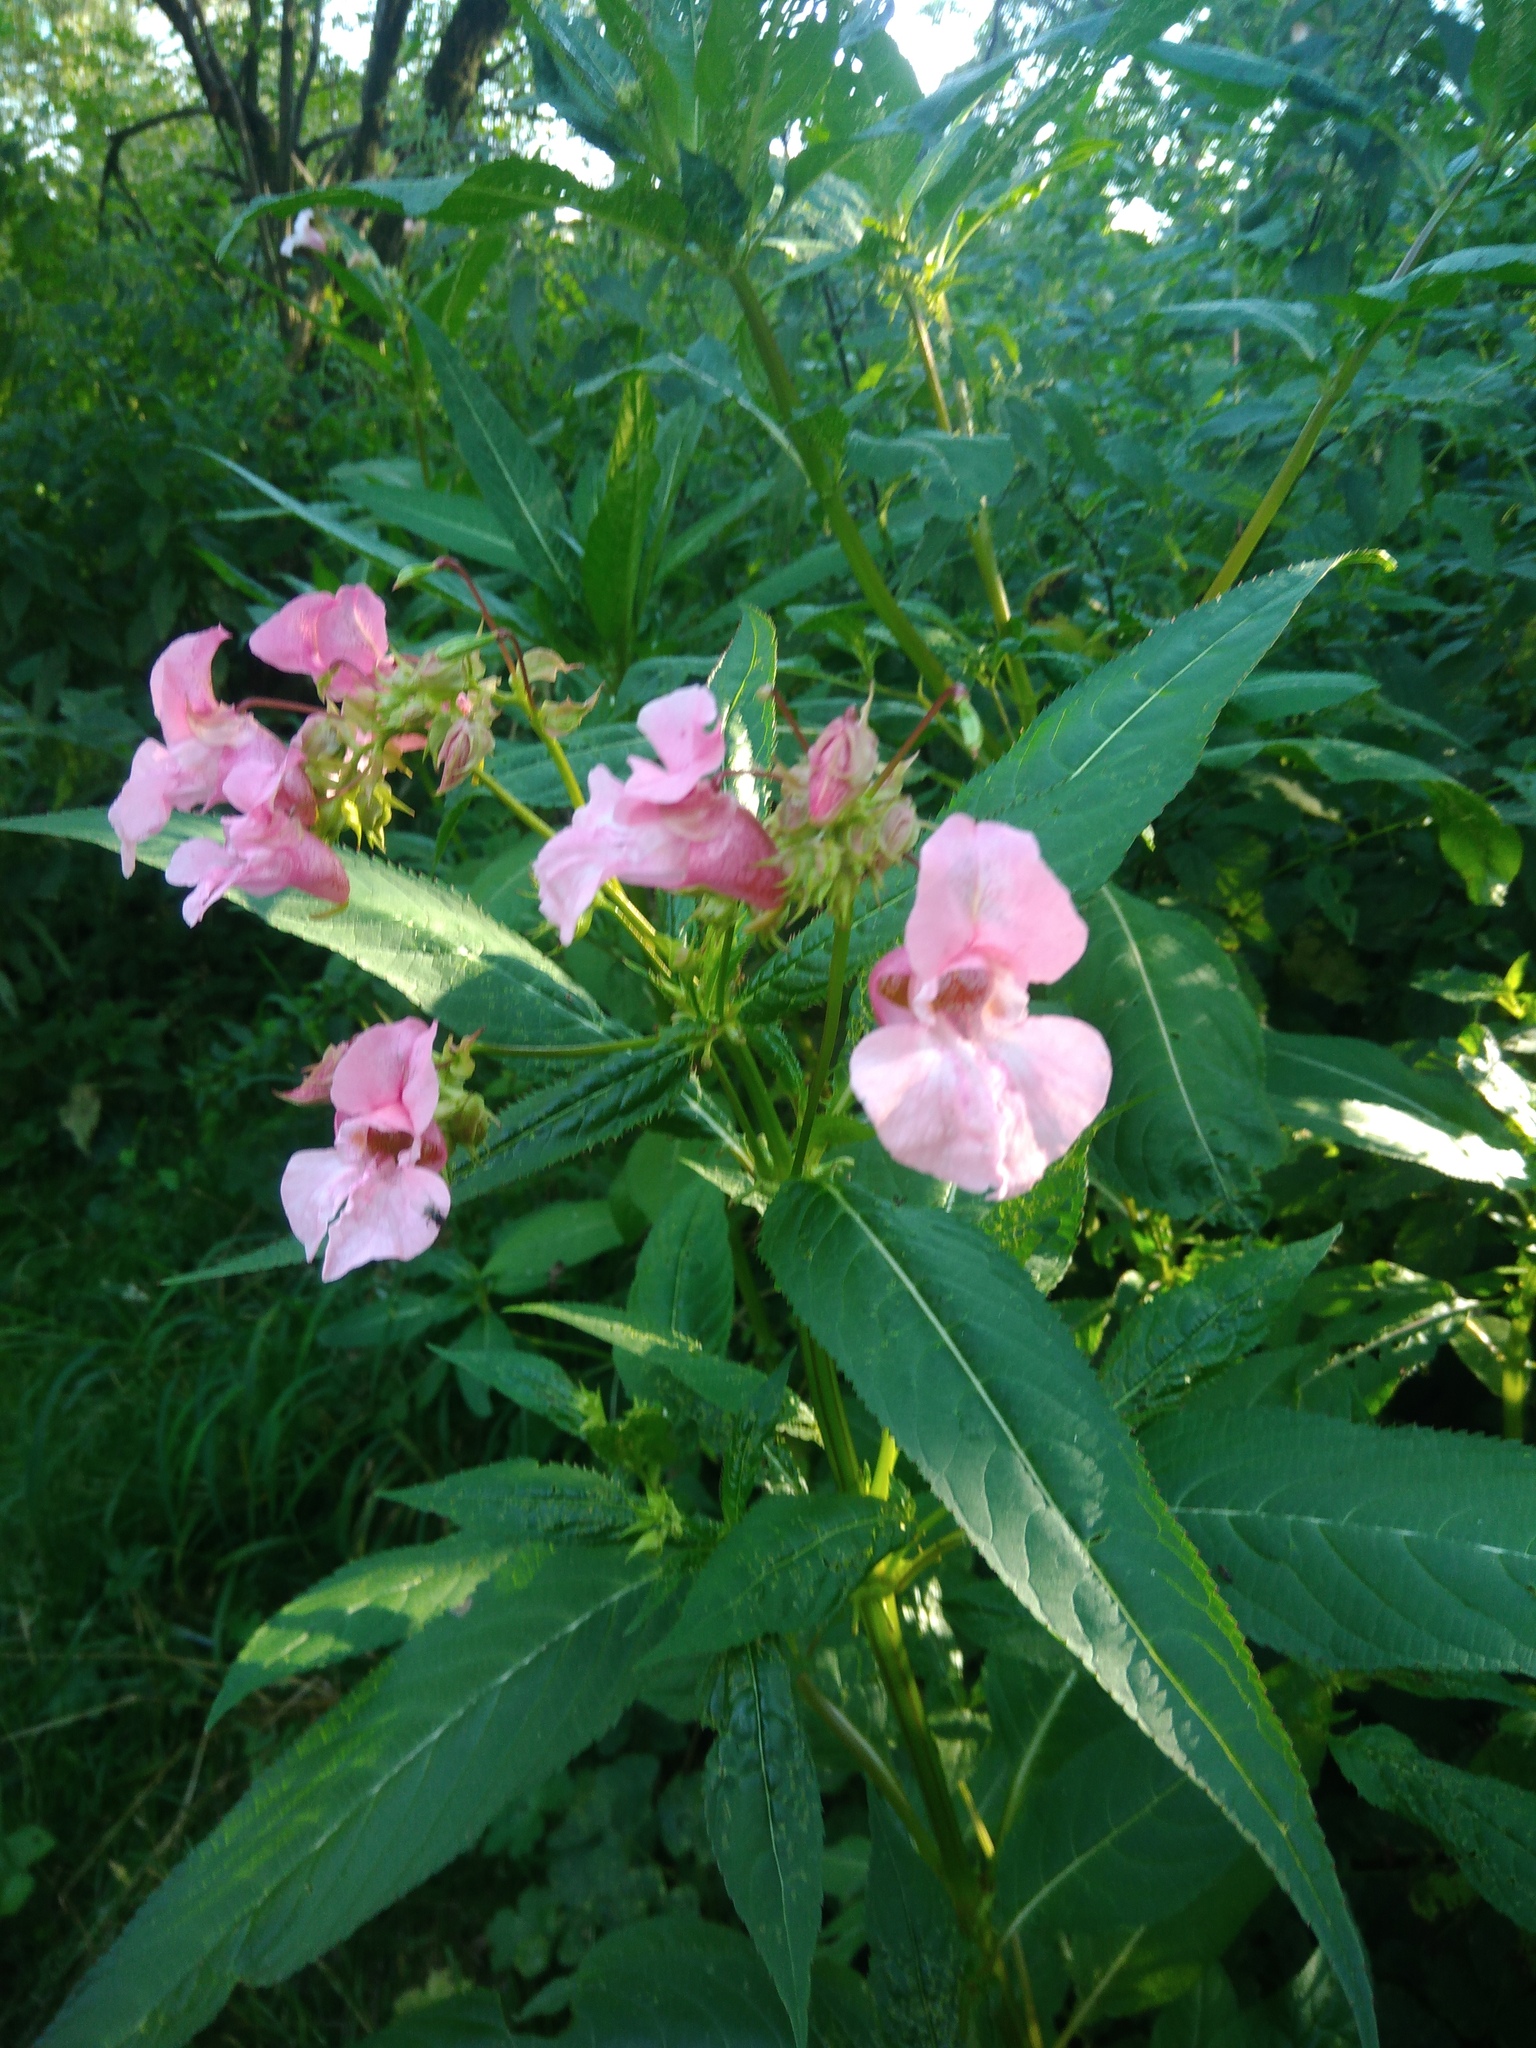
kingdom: Plantae
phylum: Tracheophyta
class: Magnoliopsida
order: Ericales
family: Balsaminaceae
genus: Impatiens
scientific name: Impatiens glandulifera
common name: Himalayan balsam
